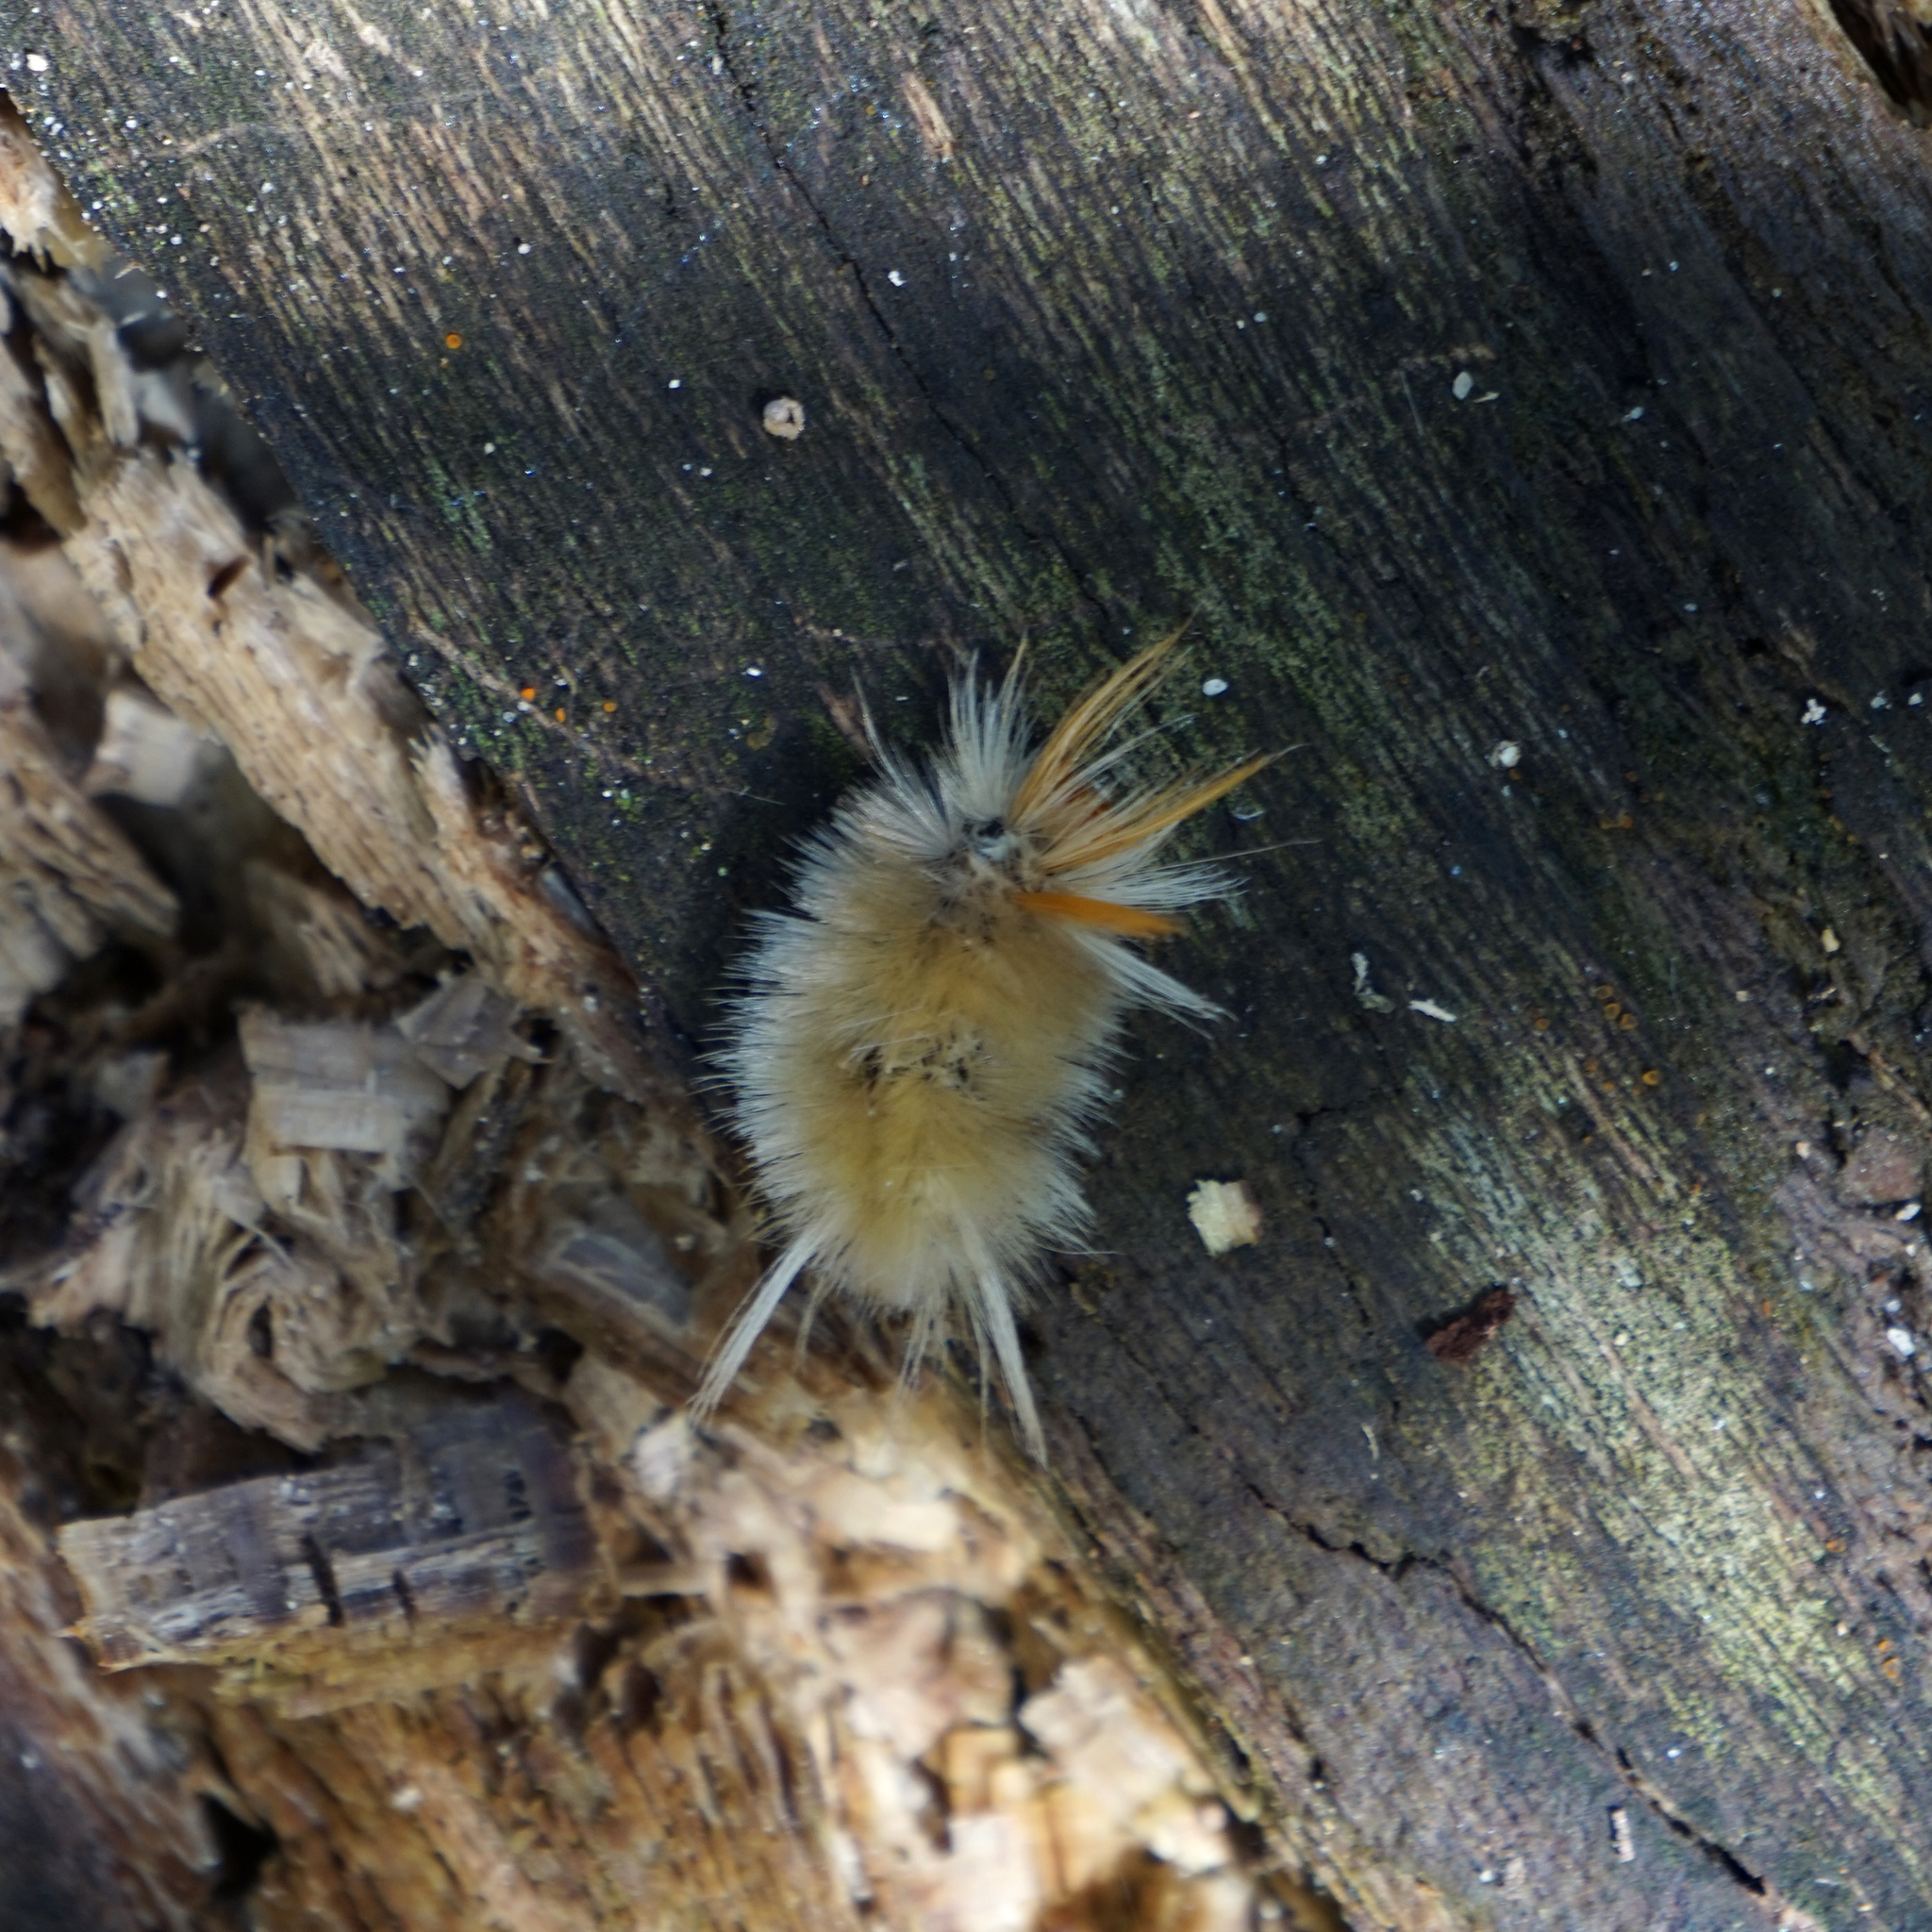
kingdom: Animalia
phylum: Arthropoda
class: Insecta
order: Lepidoptera
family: Erebidae
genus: Halysidota
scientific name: Halysidota harrisii
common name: Sycamore tussock moth
